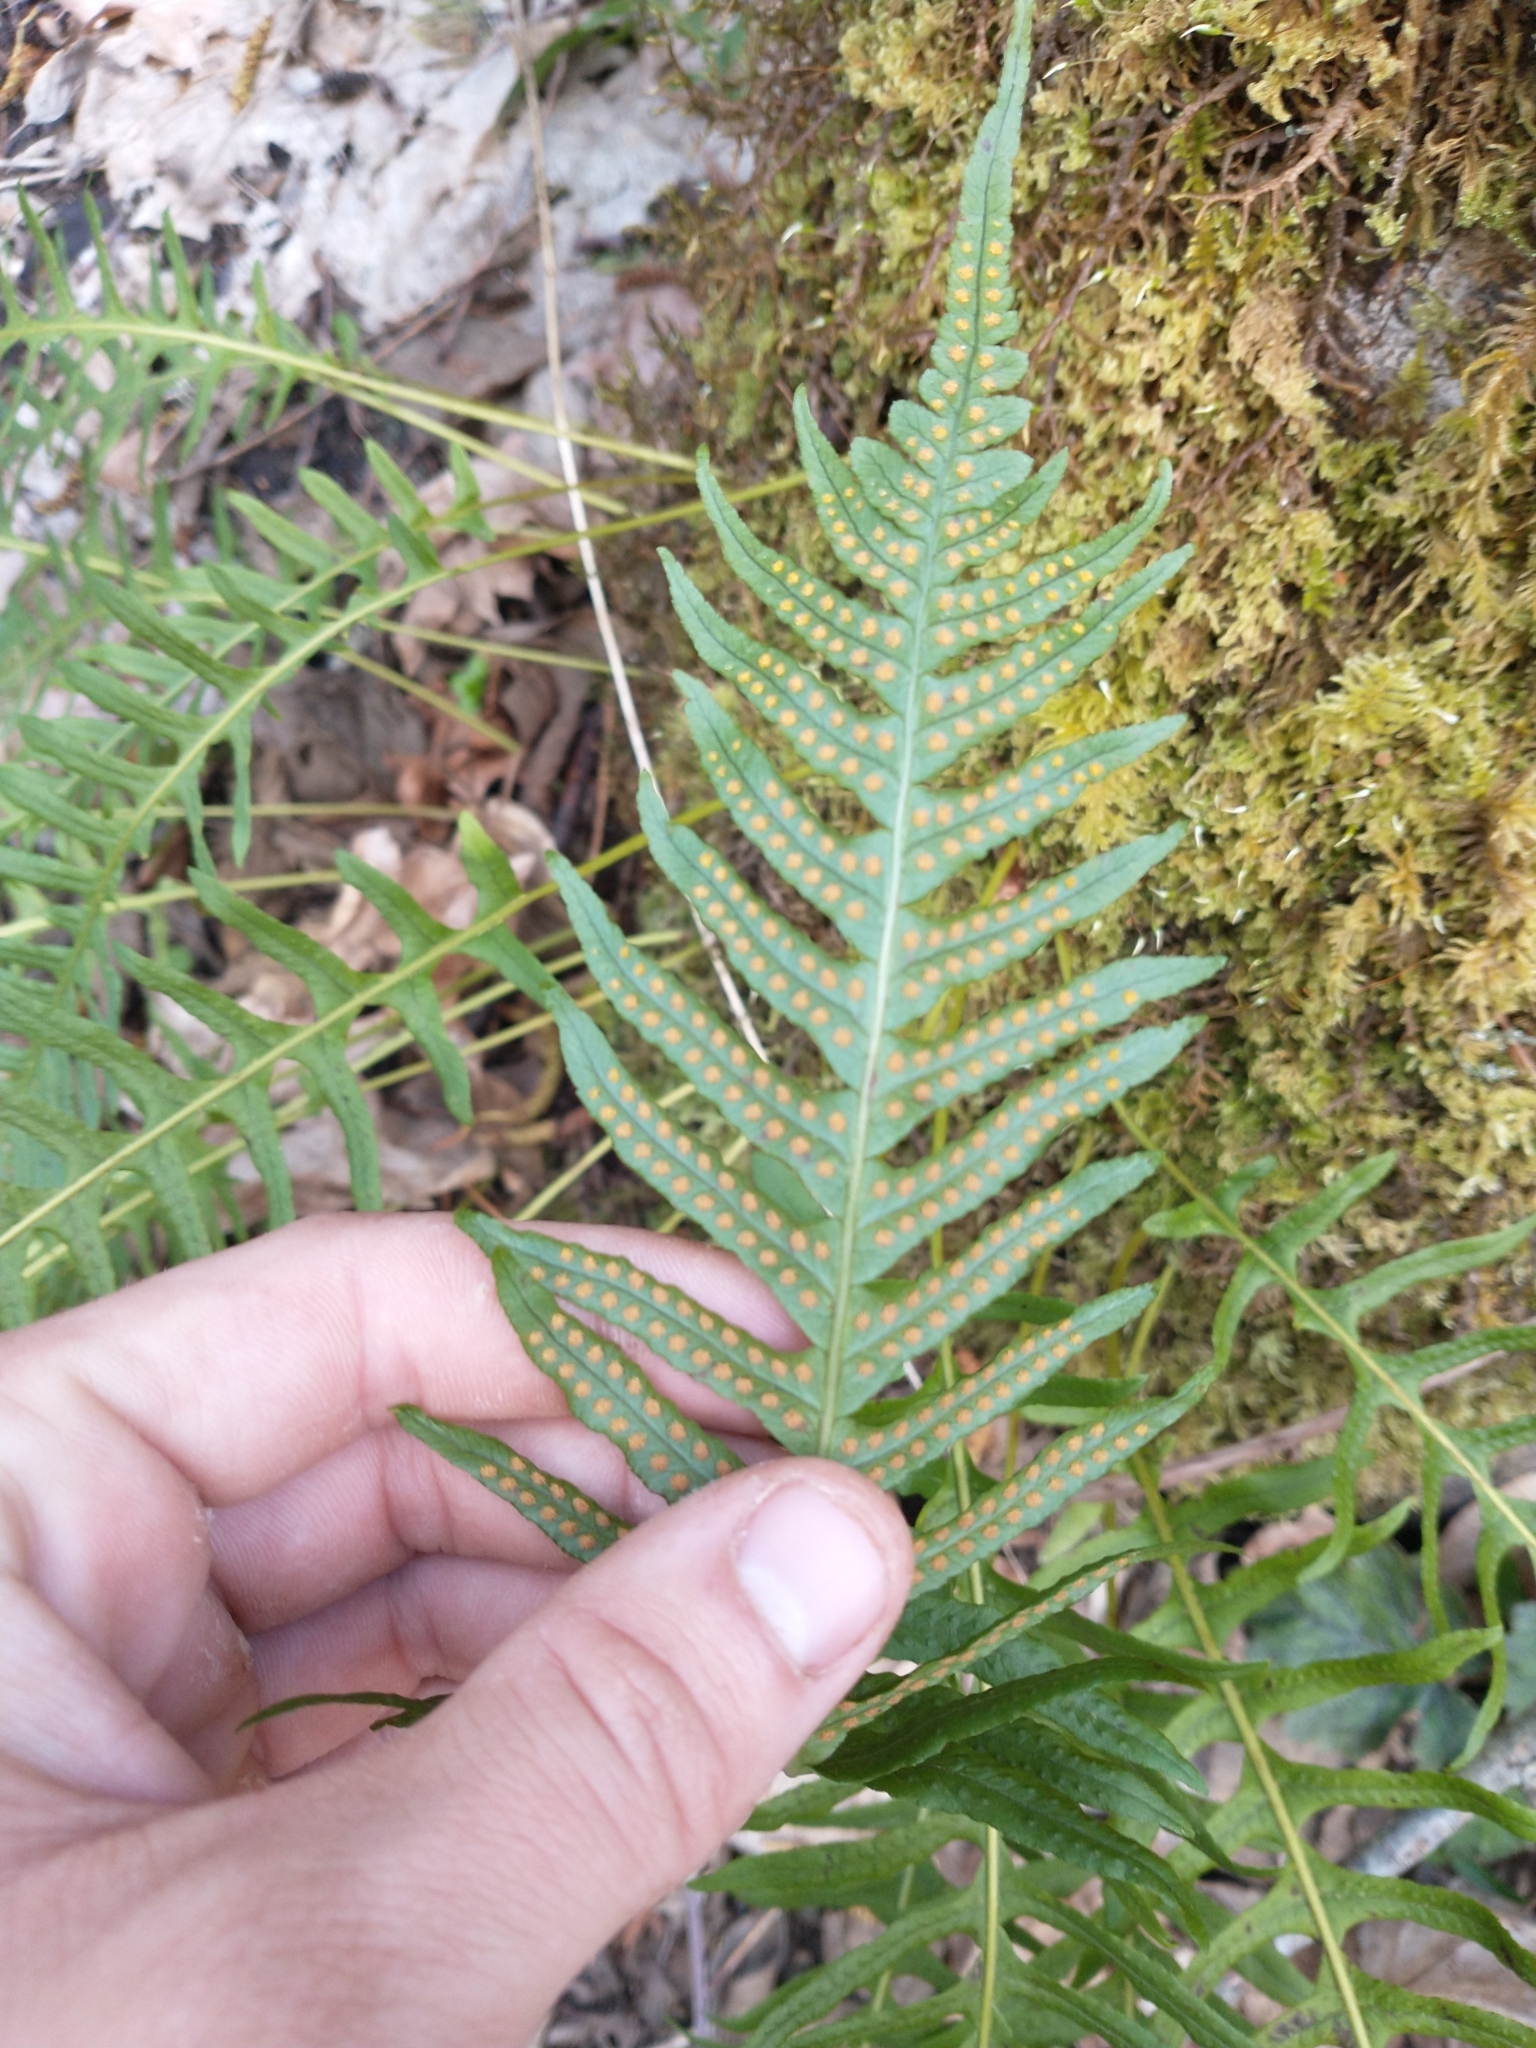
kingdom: Plantae
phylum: Tracheophyta
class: Polypodiopsida
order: Polypodiales
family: Polypodiaceae
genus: Polypodium
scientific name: Polypodium glycyrrhiza
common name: Licorice fern
